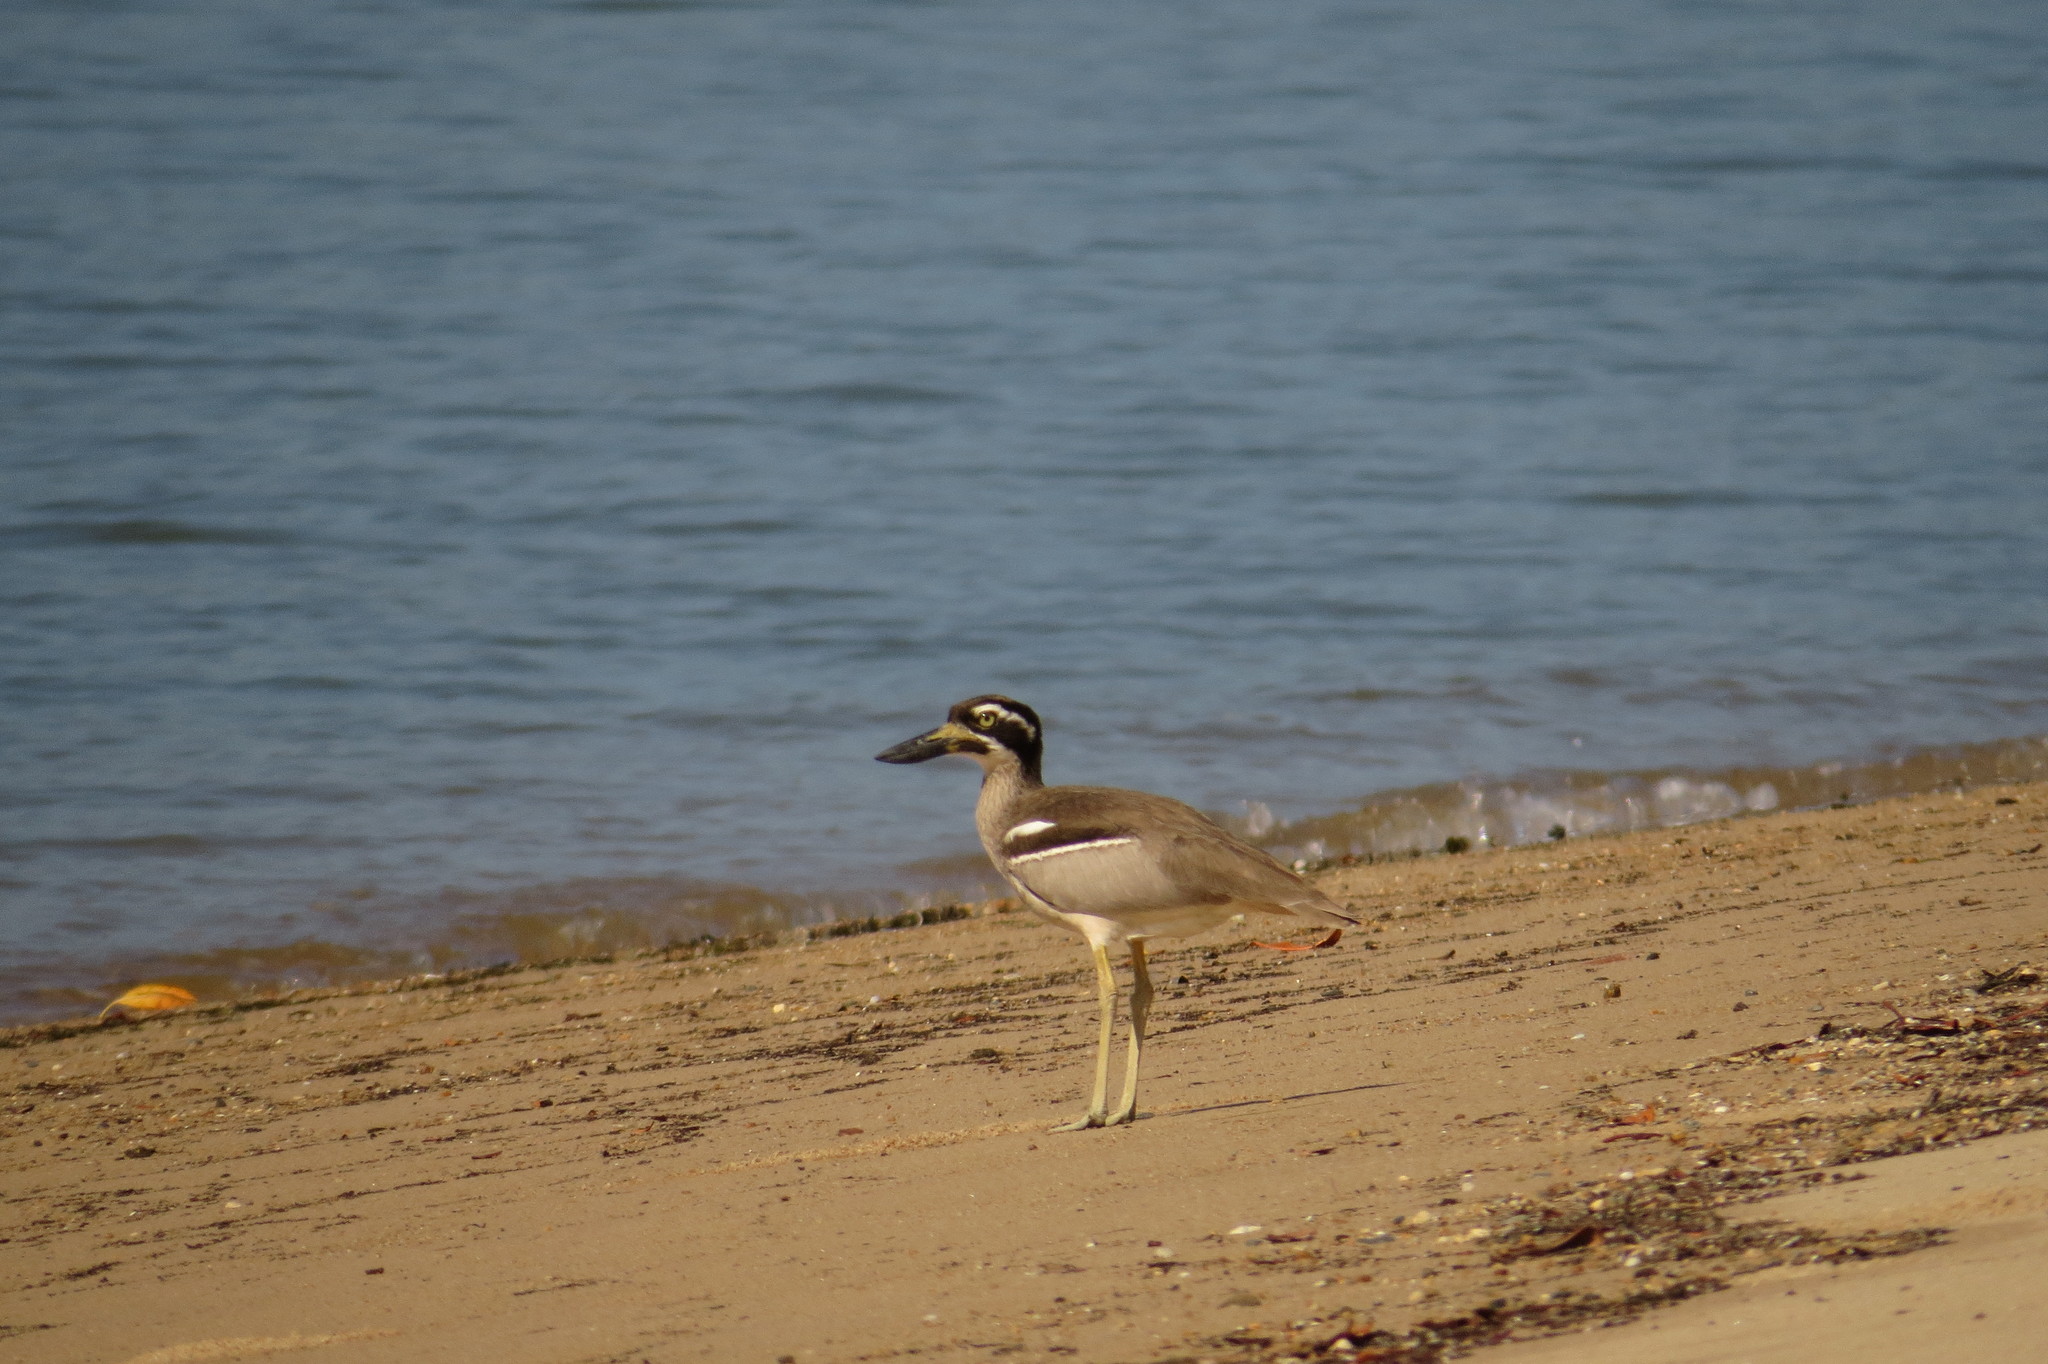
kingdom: Animalia
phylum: Chordata
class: Aves
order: Charadriiformes
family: Burhinidae
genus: Esacus
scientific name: Esacus magnirostris
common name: Beach stone-curlew
